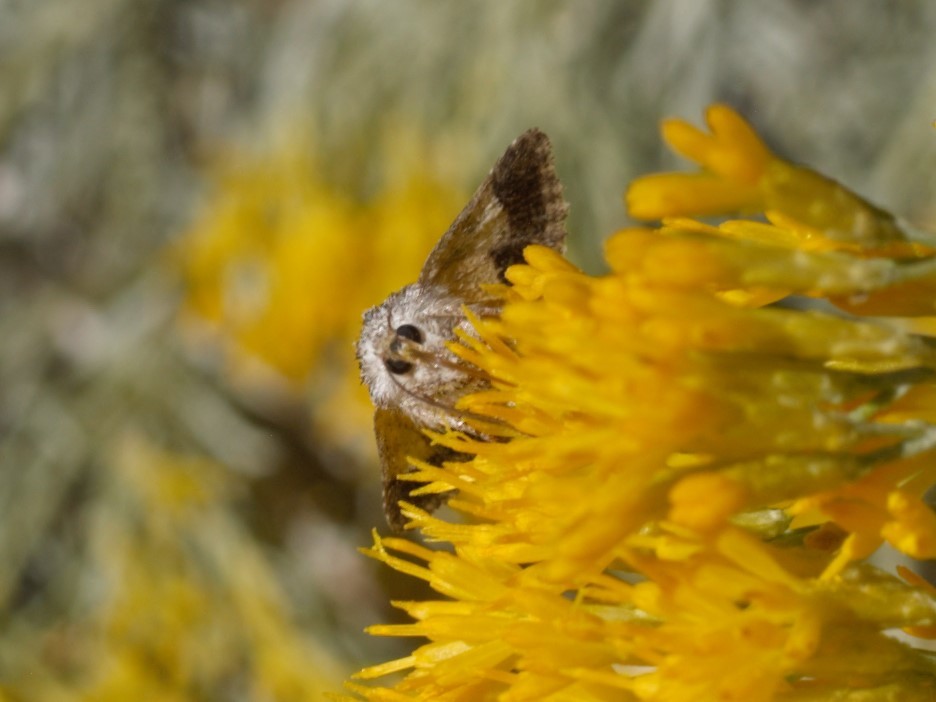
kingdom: Animalia
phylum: Arthropoda
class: Insecta
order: Lepidoptera
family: Noctuidae
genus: Pseudanarta
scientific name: Pseudanarta crocea
